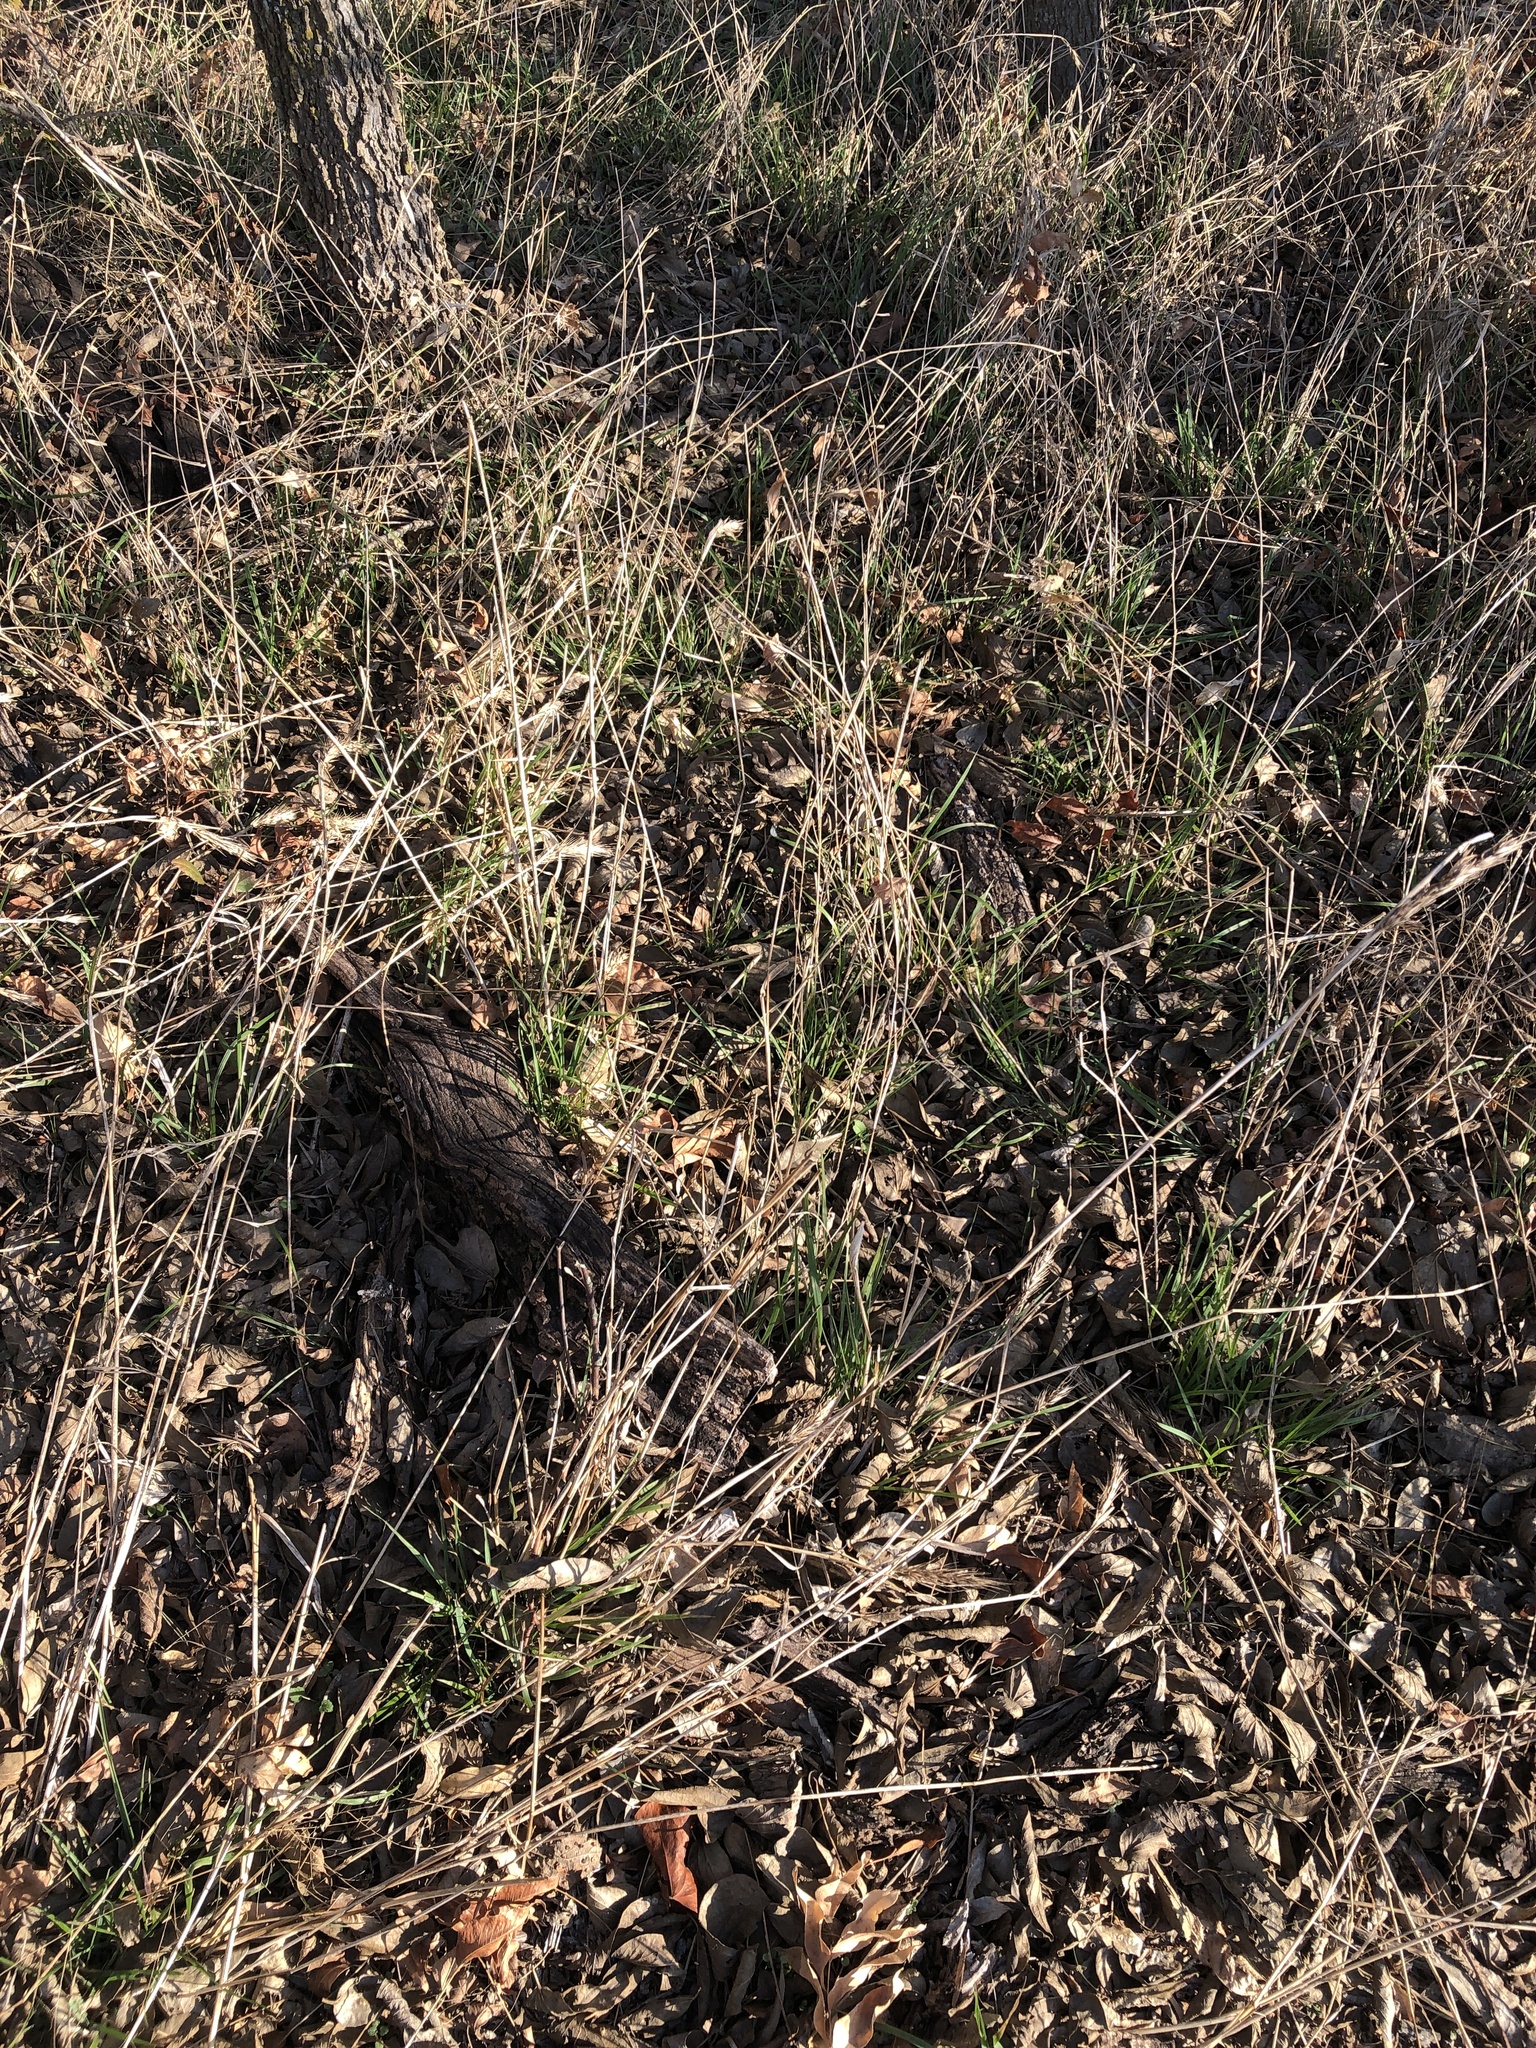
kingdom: Plantae
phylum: Tracheophyta
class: Liliopsida
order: Poales
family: Poaceae
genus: Elymus
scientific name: Elymus virginicus
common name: Common eastern wildrye
